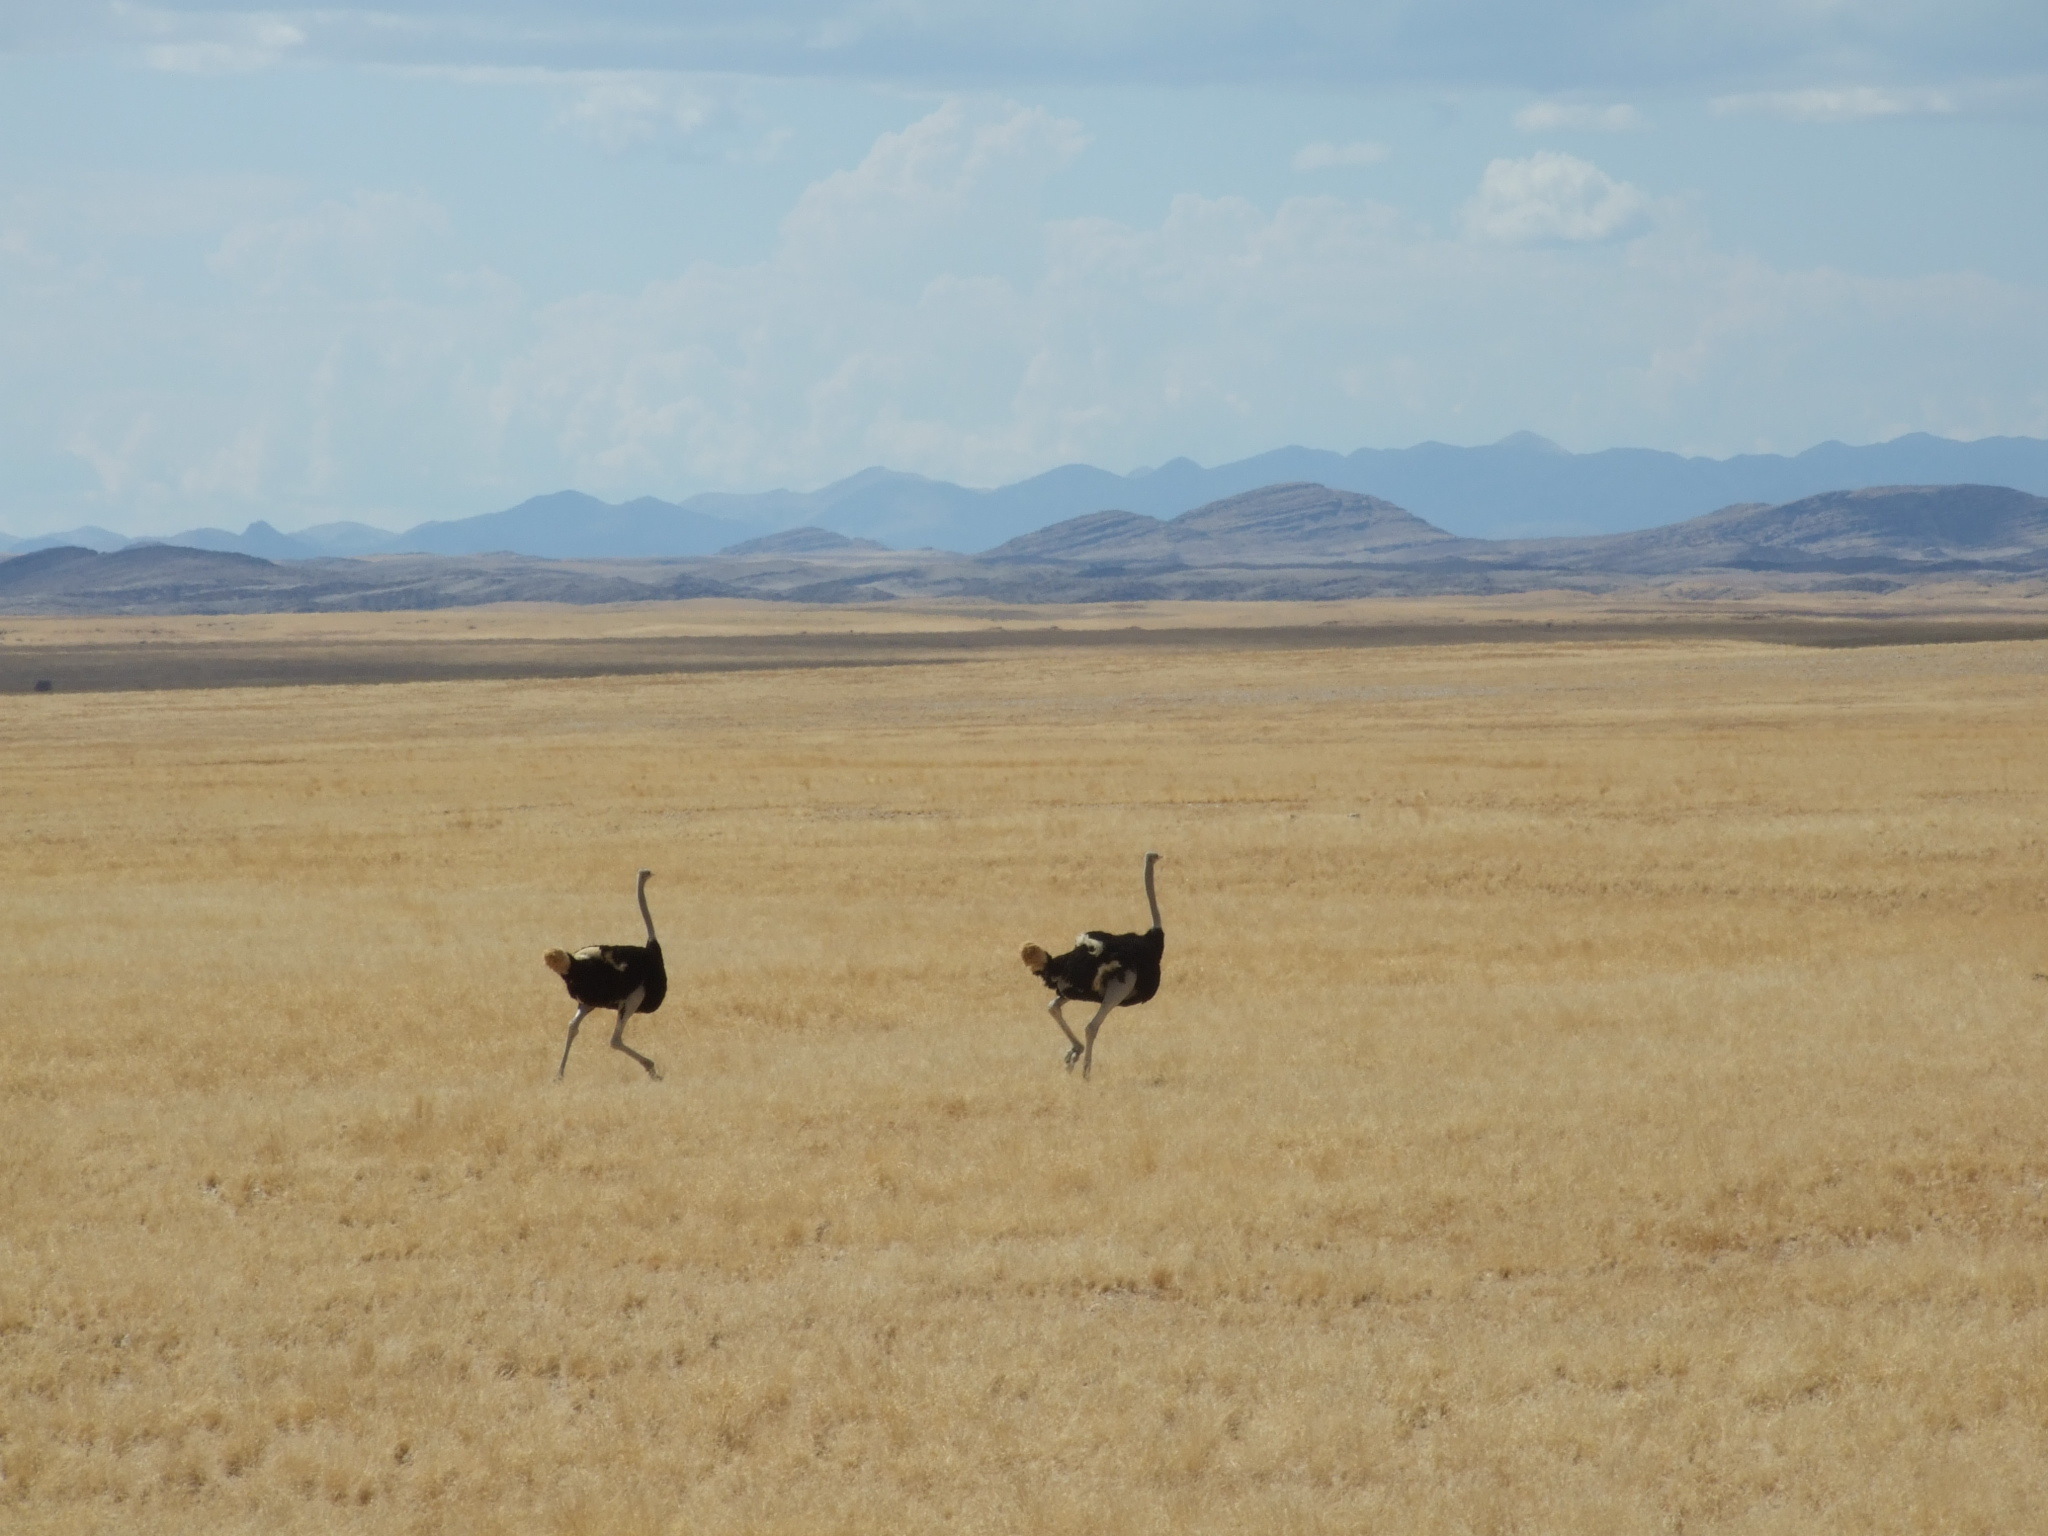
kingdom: Animalia
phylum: Chordata
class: Aves
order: Struthioniformes
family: Struthionidae
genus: Struthio
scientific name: Struthio camelus
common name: Common ostrich
